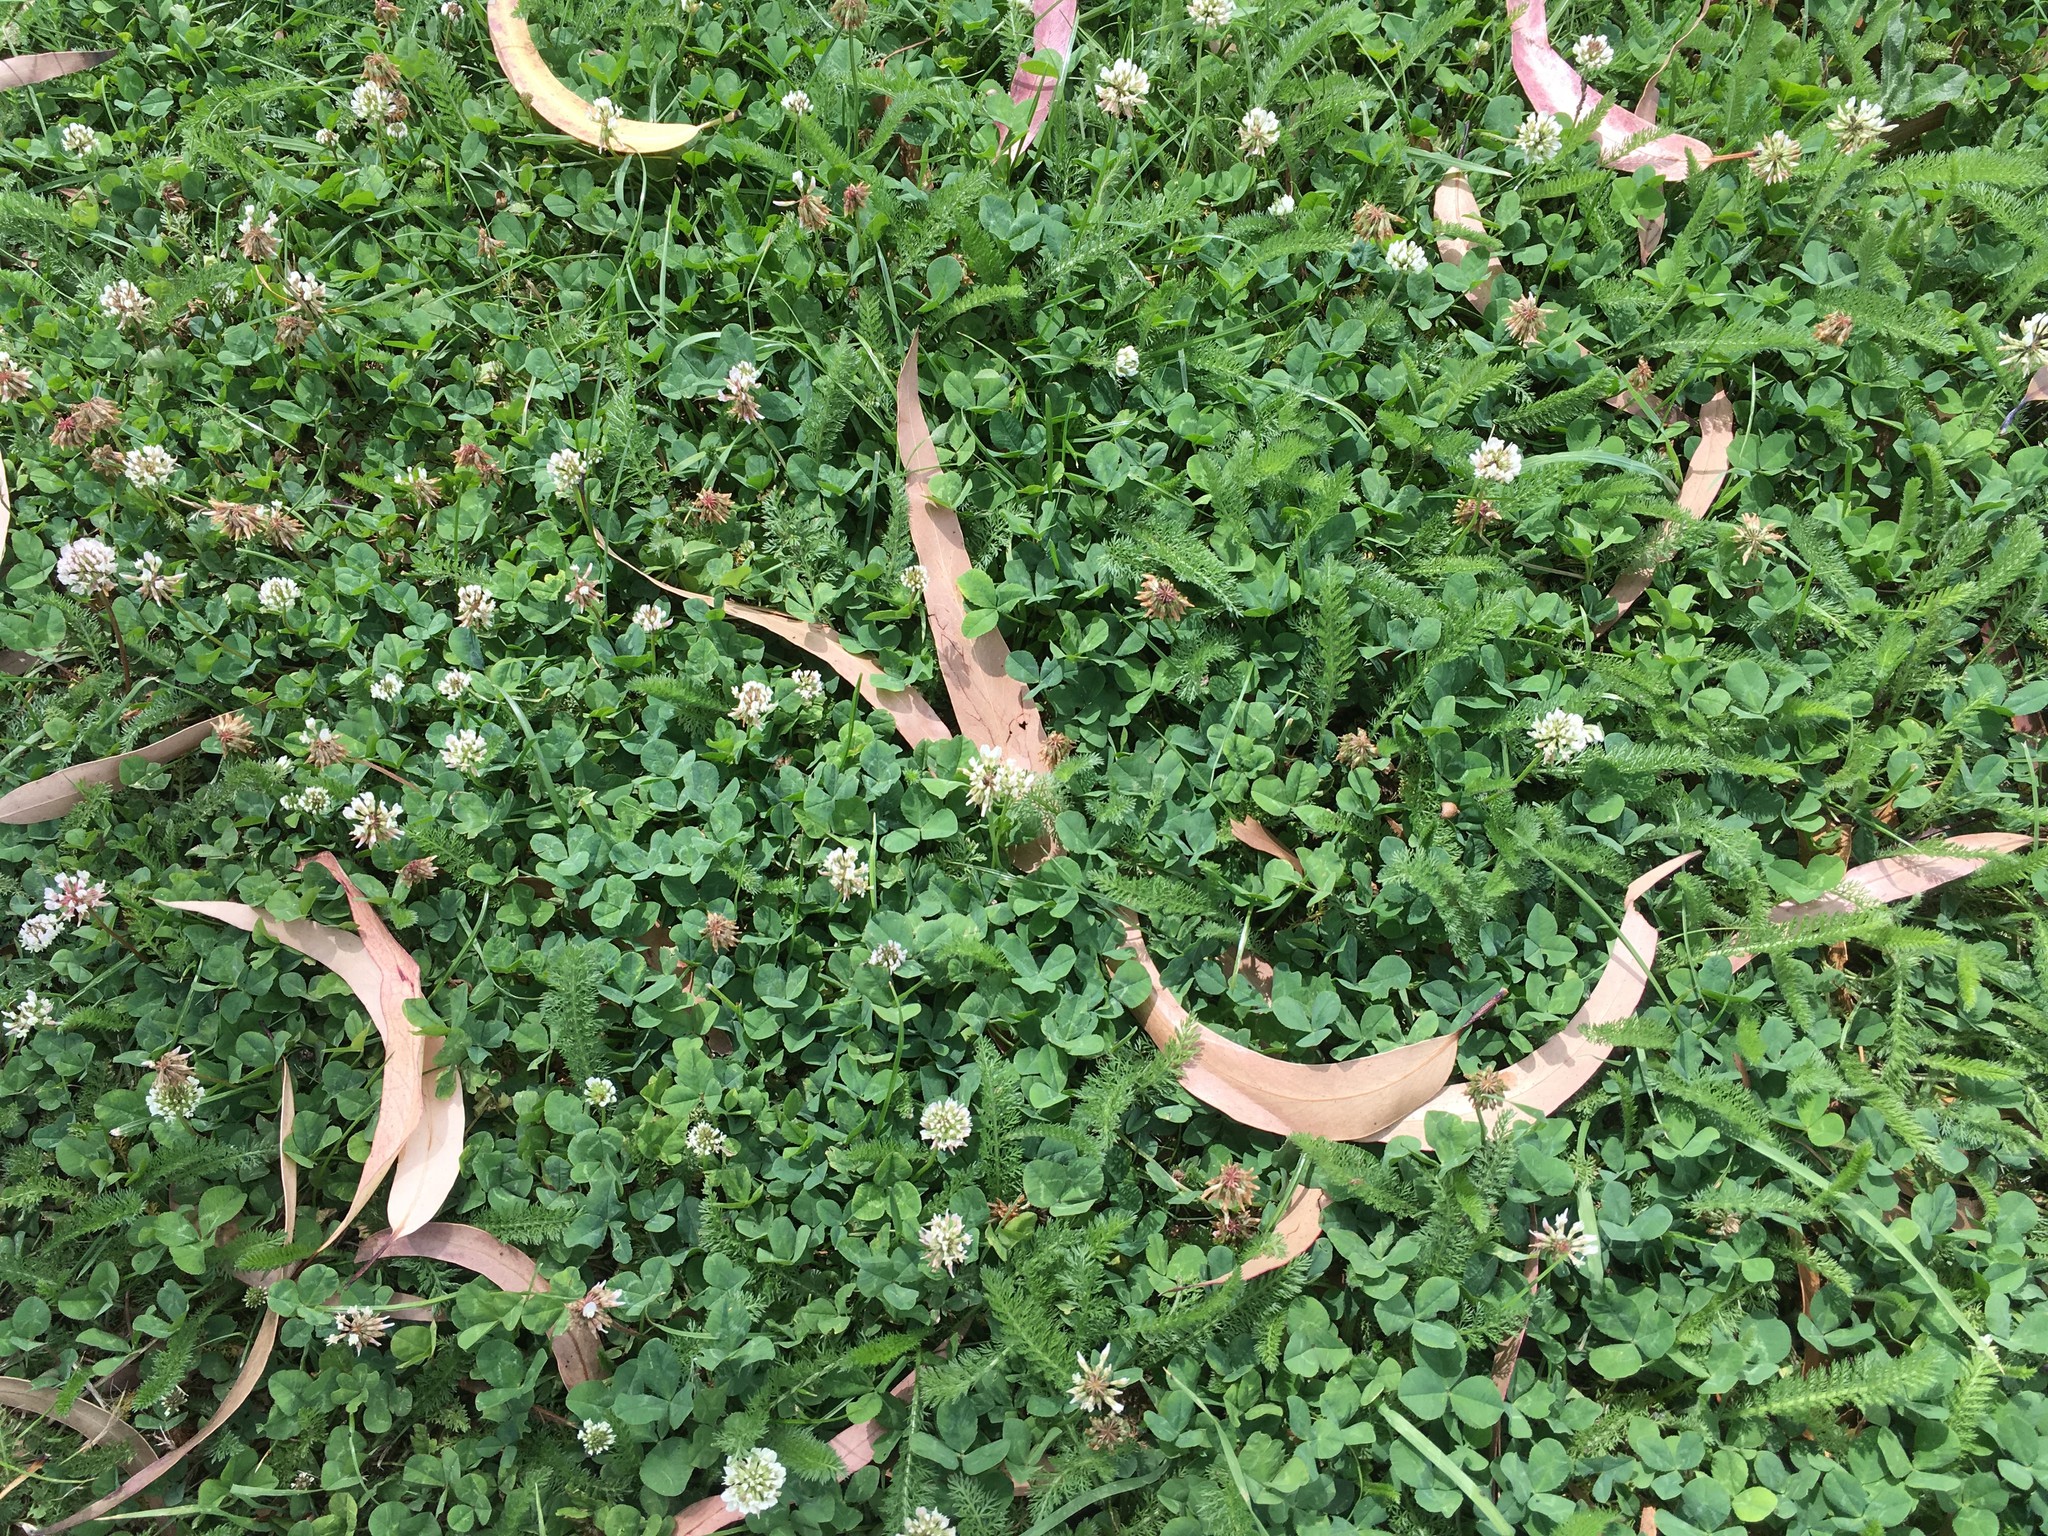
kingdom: Plantae
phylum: Tracheophyta
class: Magnoliopsida
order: Fabales
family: Fabaceae
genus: Trifolium
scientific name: Trifolium repens
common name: White clover
